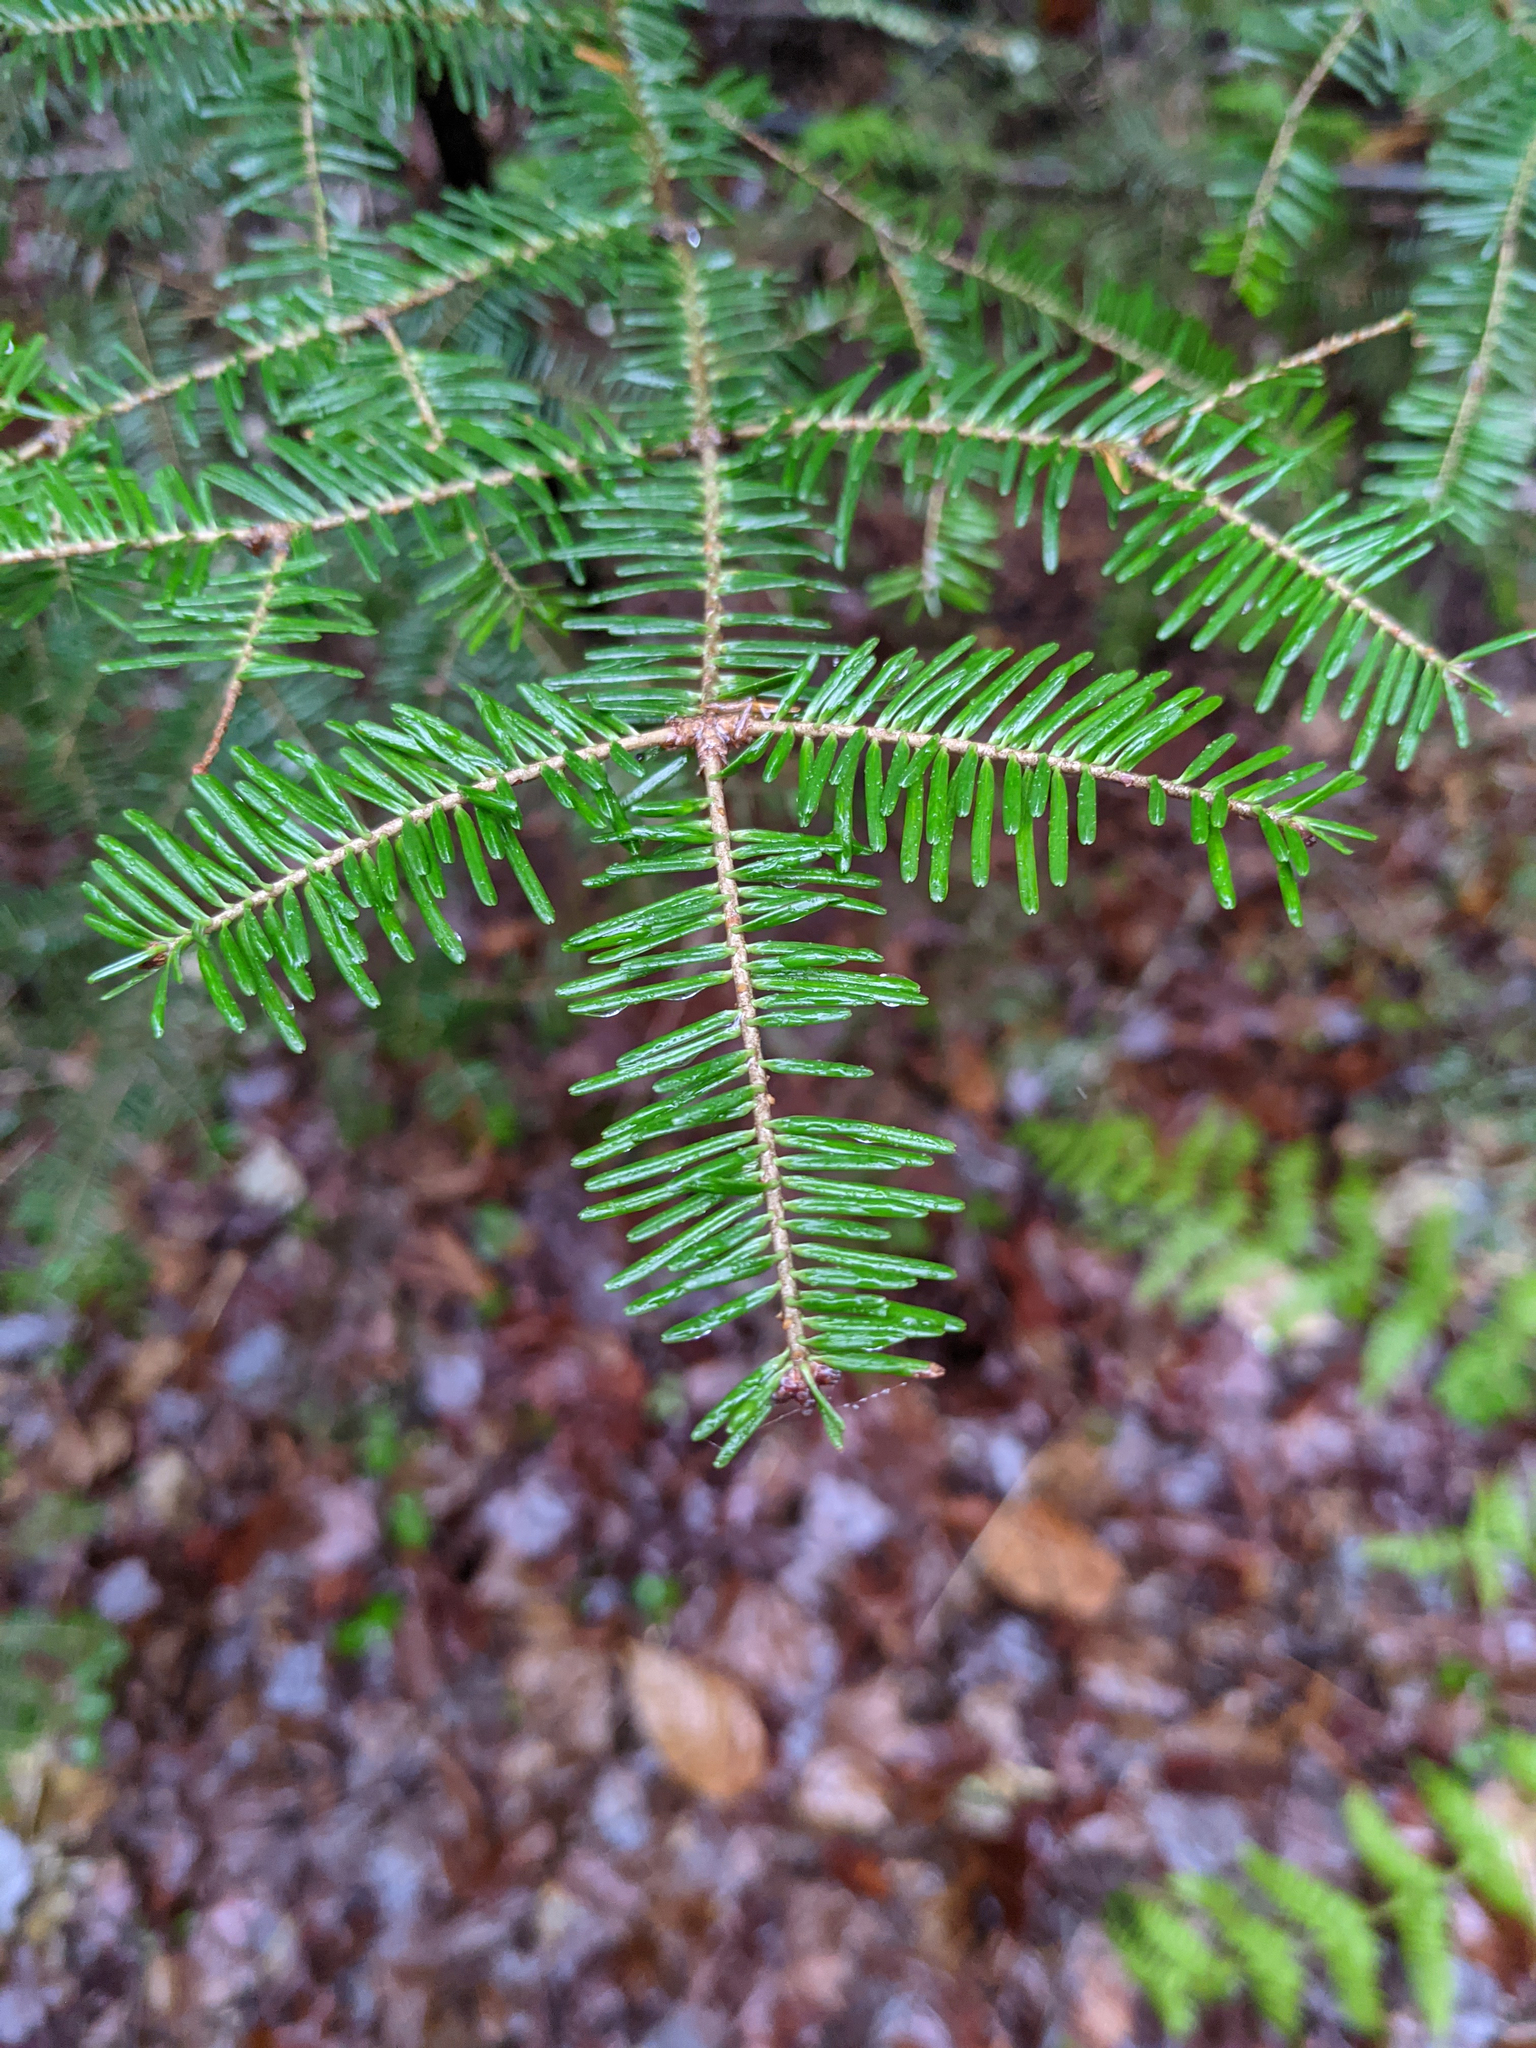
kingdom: Plantae
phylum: Tracheophyta
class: Pinopsida
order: Pinales
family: Pinaceae
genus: Abies
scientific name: Abies balsamea
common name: Balsam fir
